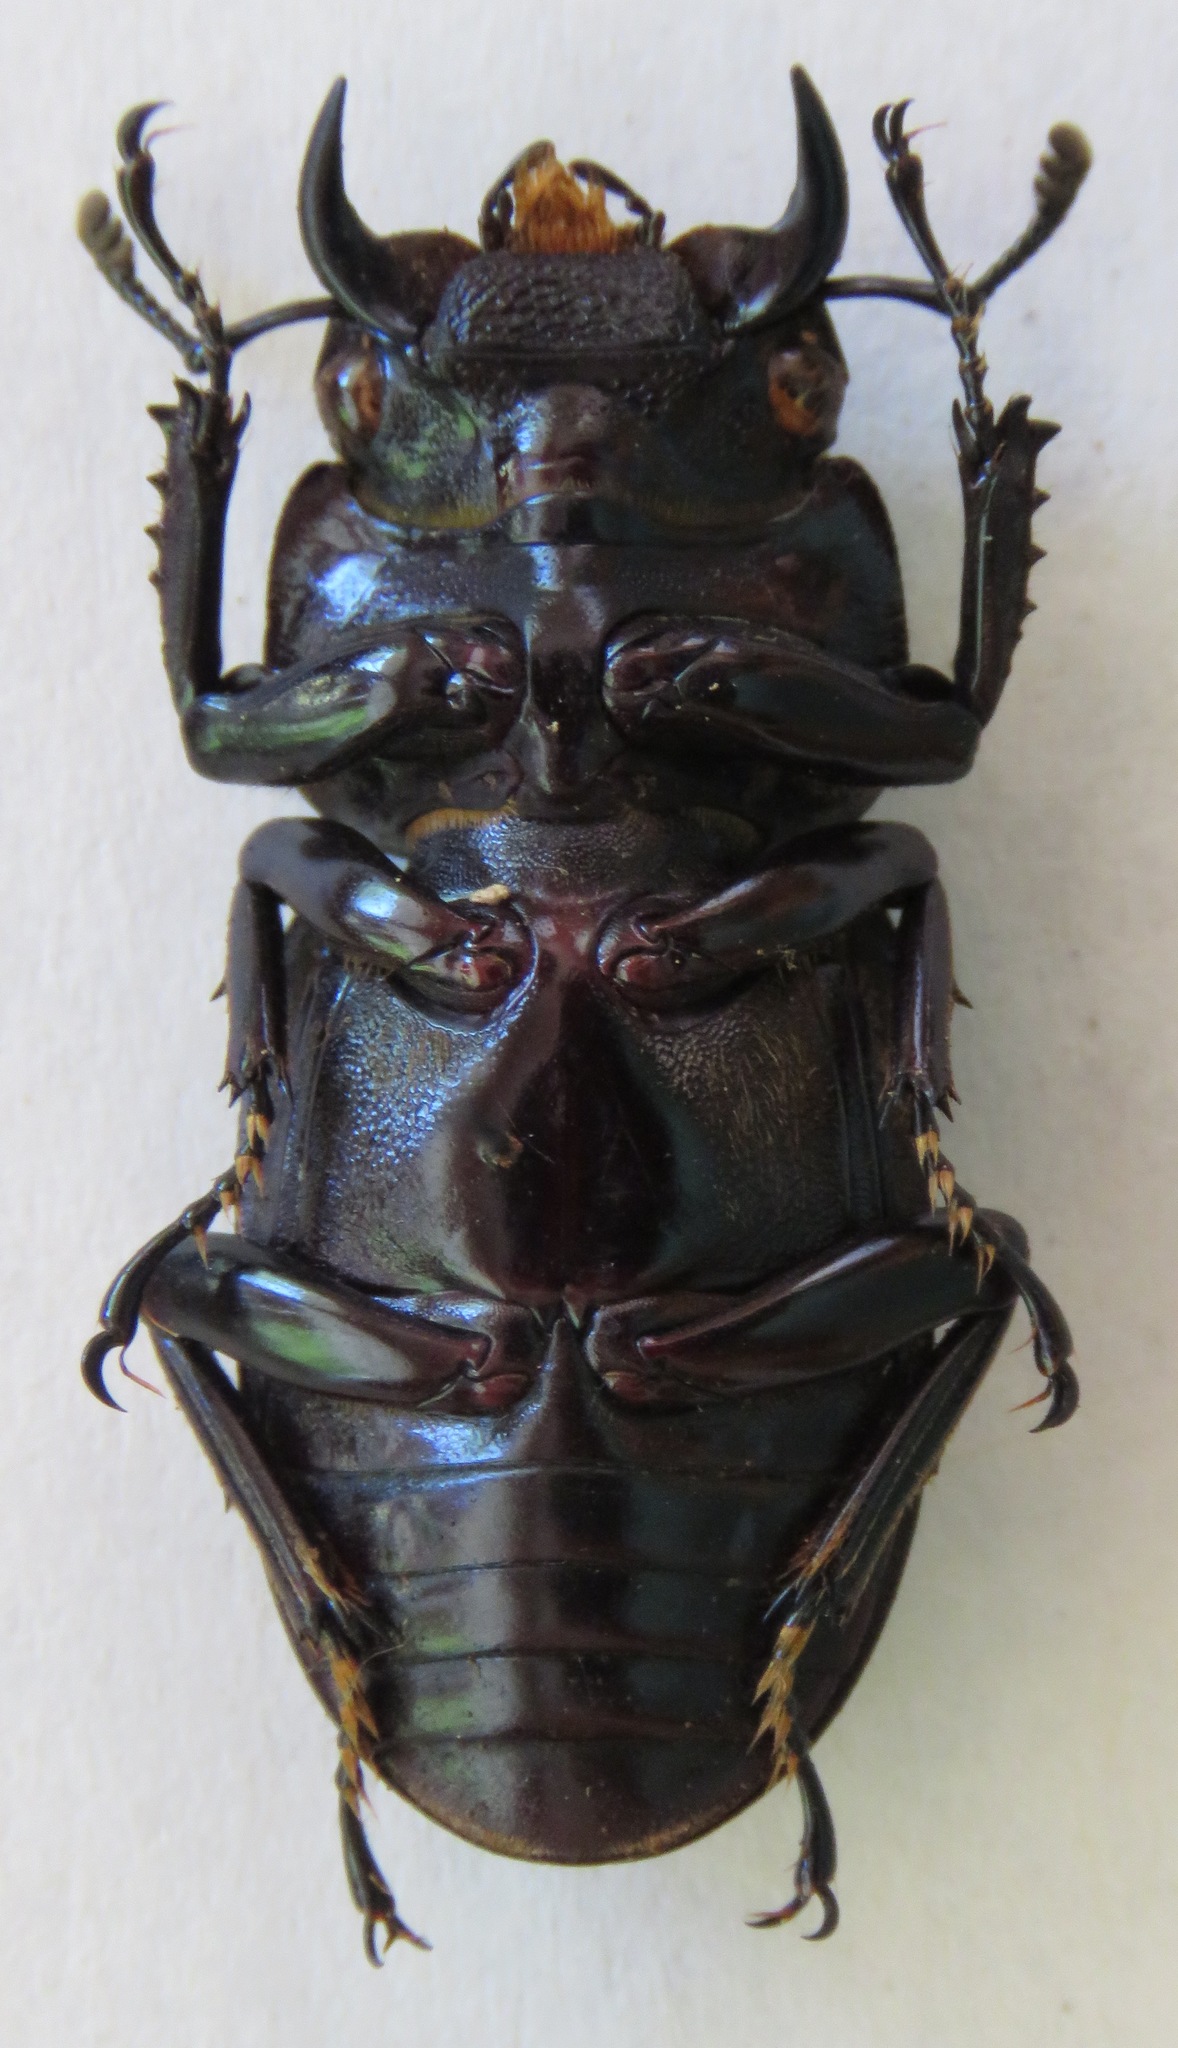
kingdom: Animalia
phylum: Arthropoda
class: Insecta
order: Coleoptera
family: Lucanidae
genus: Dorcus
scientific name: Dorcus antaeus
